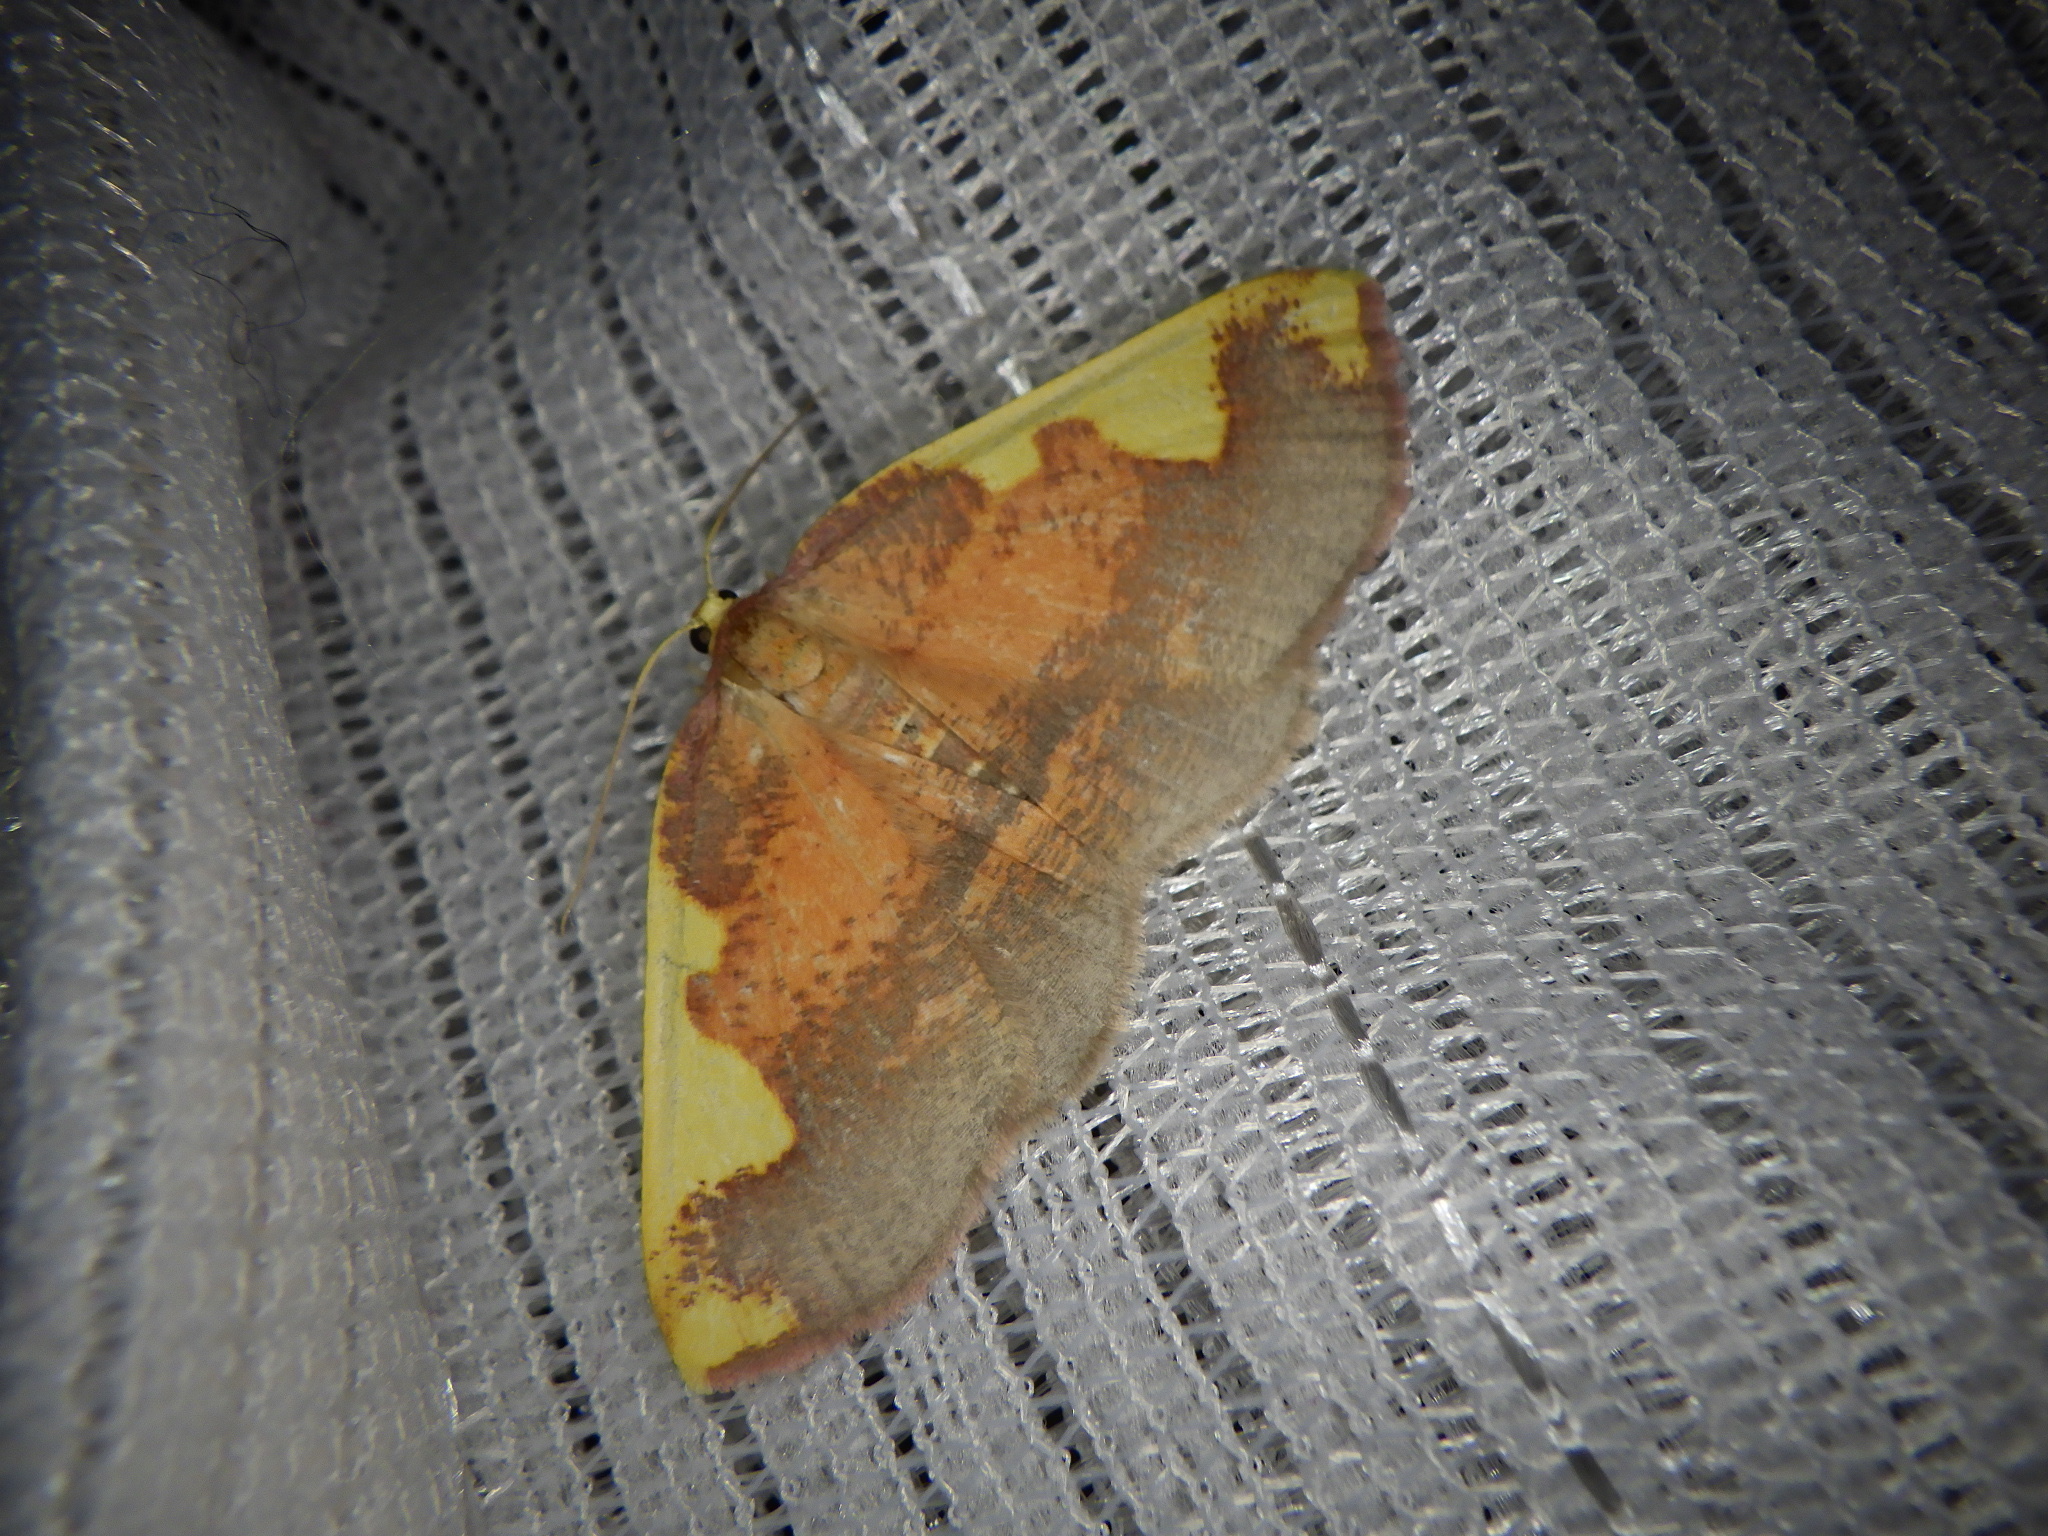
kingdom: Animalia
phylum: Arthropoda
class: Insecta
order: Lepidoptera
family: Geometridae
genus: Nothomiza
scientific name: Nothomiza formosa
